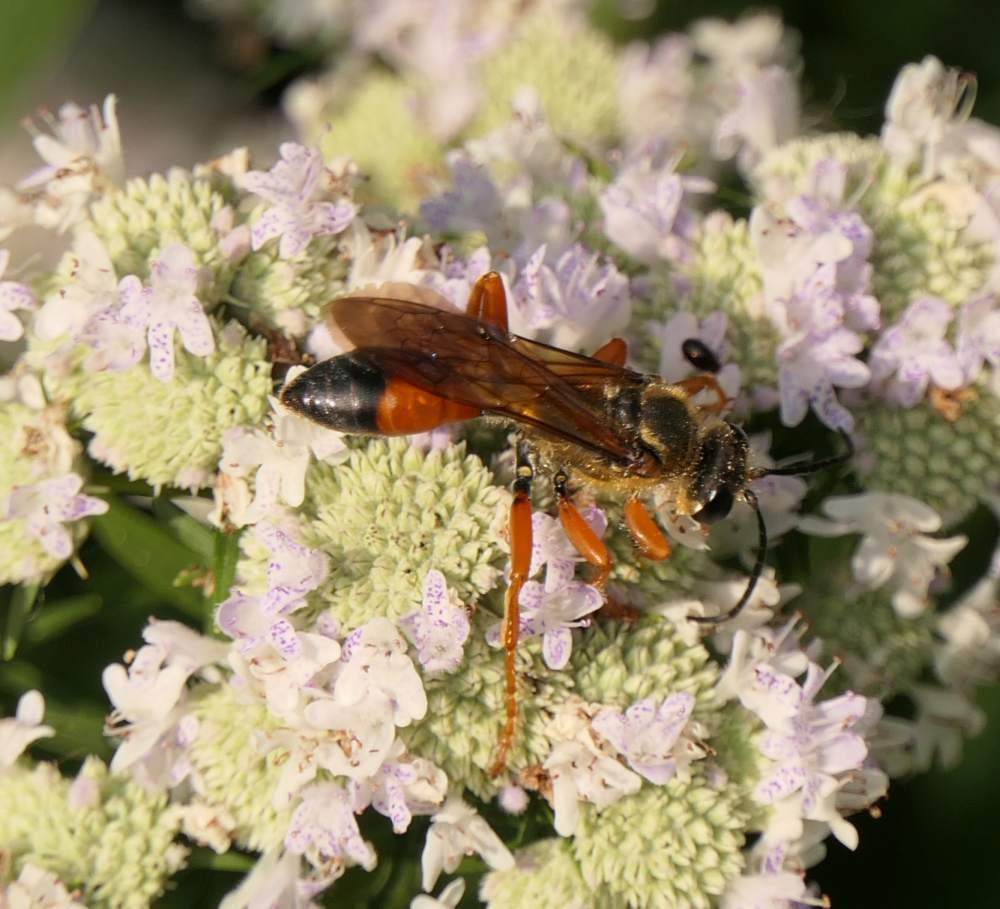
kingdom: Animalia
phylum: Arthropoda
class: Insecta
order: Hymenoptera
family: Sphecidae
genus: Sphex
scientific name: Sphex ichneumoneus
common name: Great golden digger wasp
